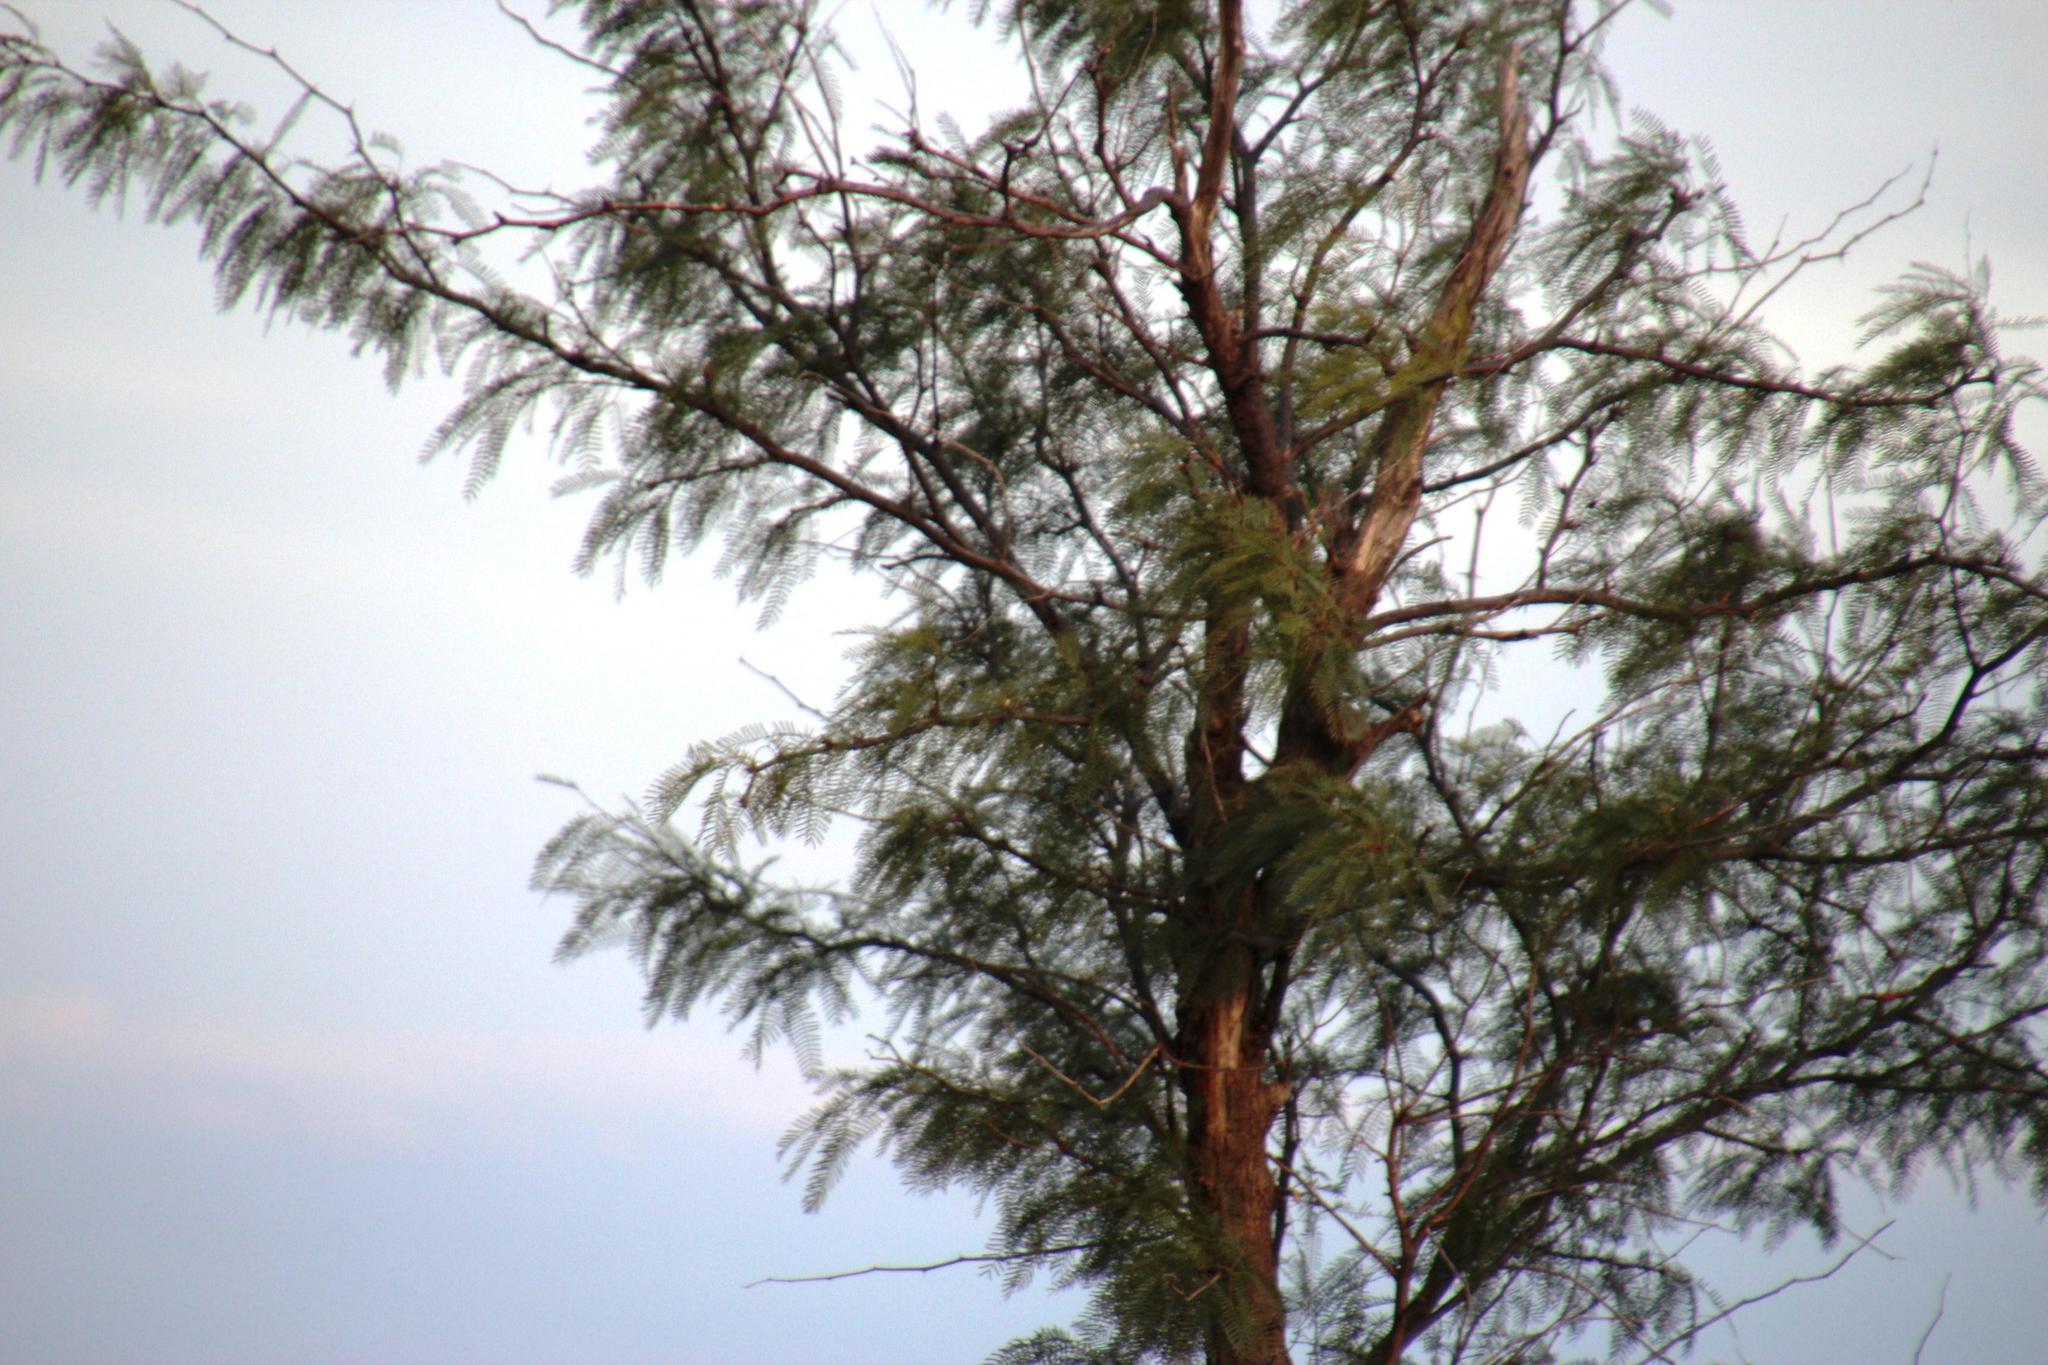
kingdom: Plantae
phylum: Tracheophyta
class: Magnoliopsida
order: Fabales
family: Fabaceae
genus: Prosopis
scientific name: Prosopis glandulosa
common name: Honey mesquite
